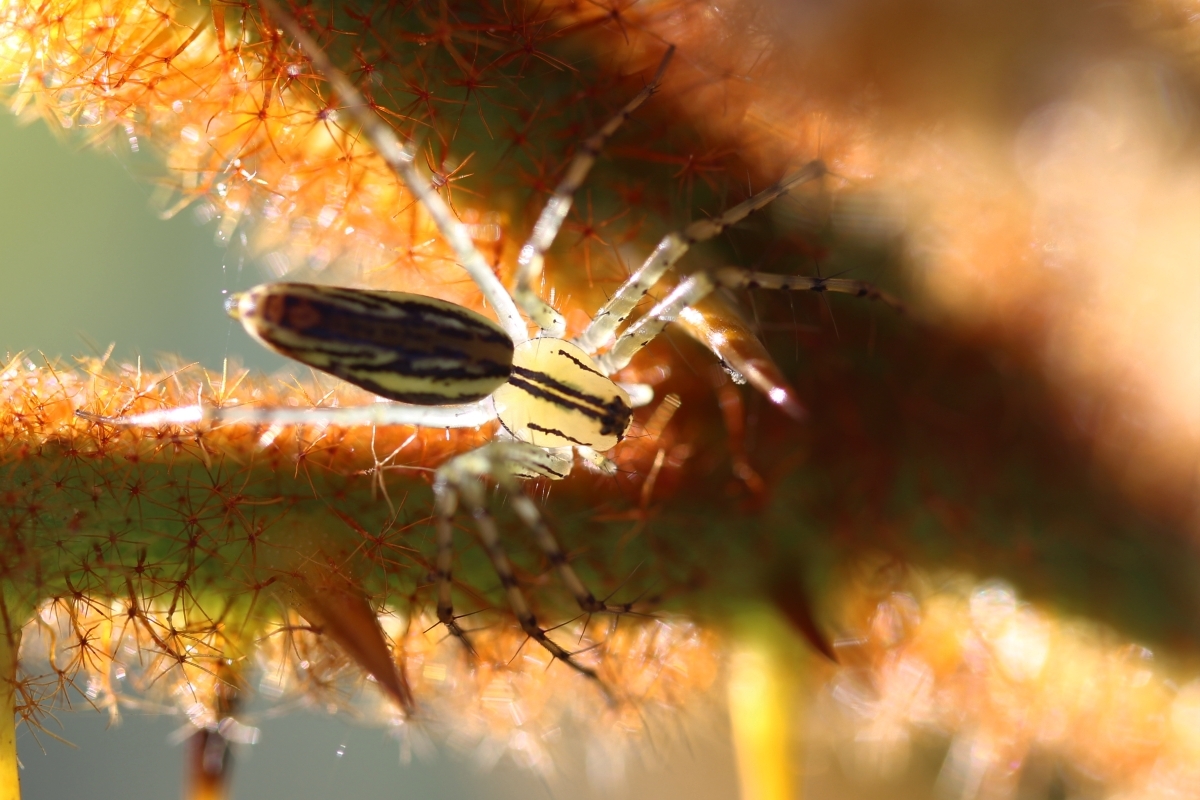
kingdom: Animalia
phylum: Arthropoda
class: Arachnida
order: Araneae
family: Oxyopidae
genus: Peucetia
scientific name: Peucetia rubrolineata
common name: Lynx spiders
